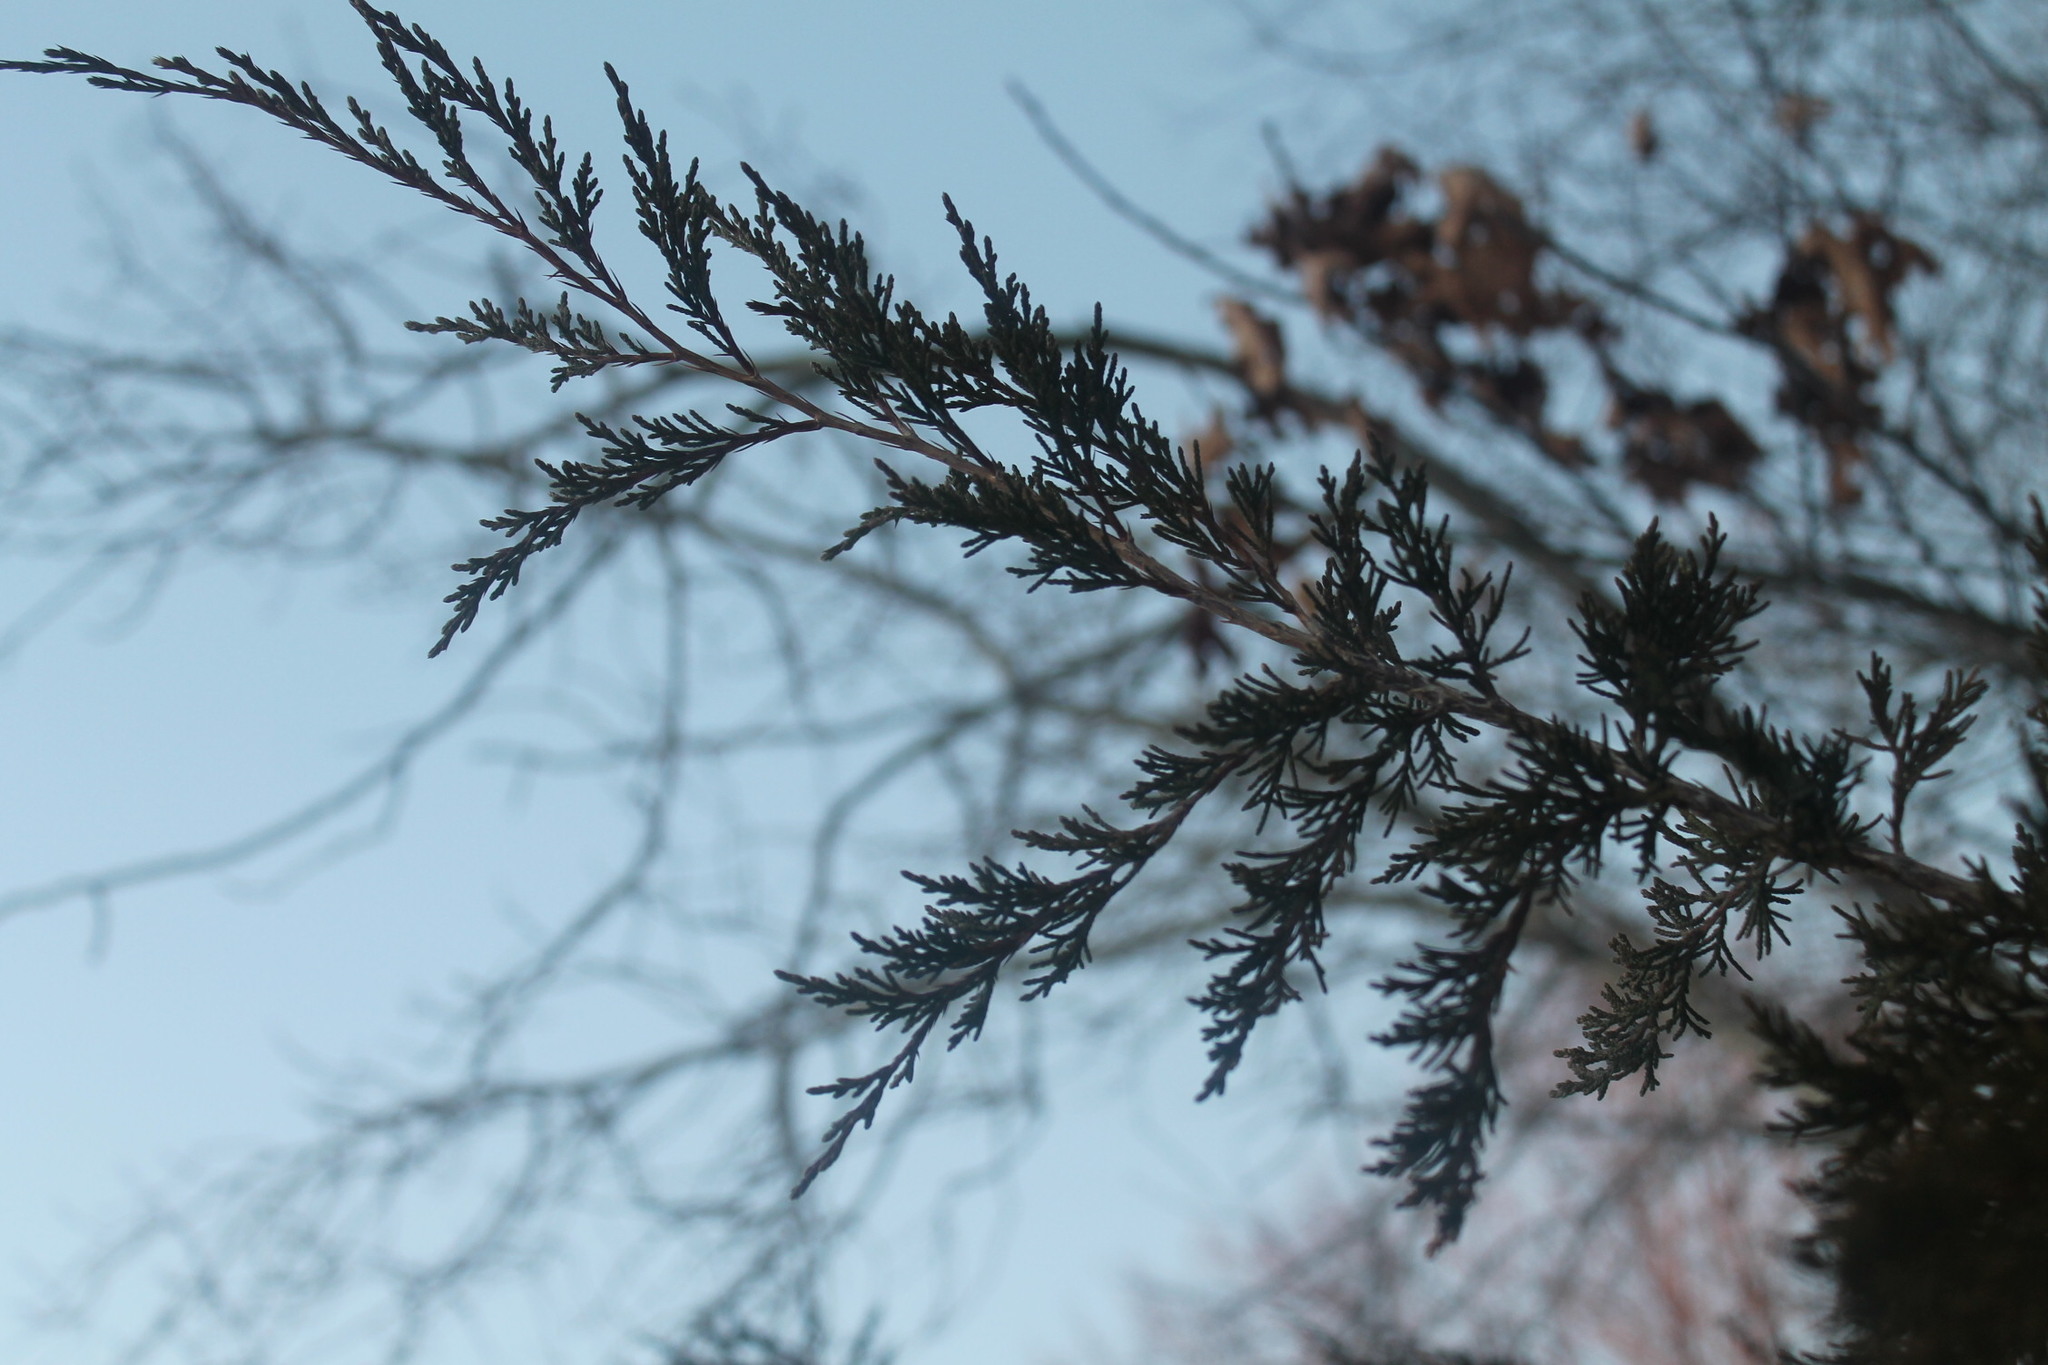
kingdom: Plantae
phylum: Tracheophyta
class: Pinopsida
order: Pinales
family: Cupressaceae
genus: Juniperus
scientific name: Juniperus virginiana
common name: Red juniper
